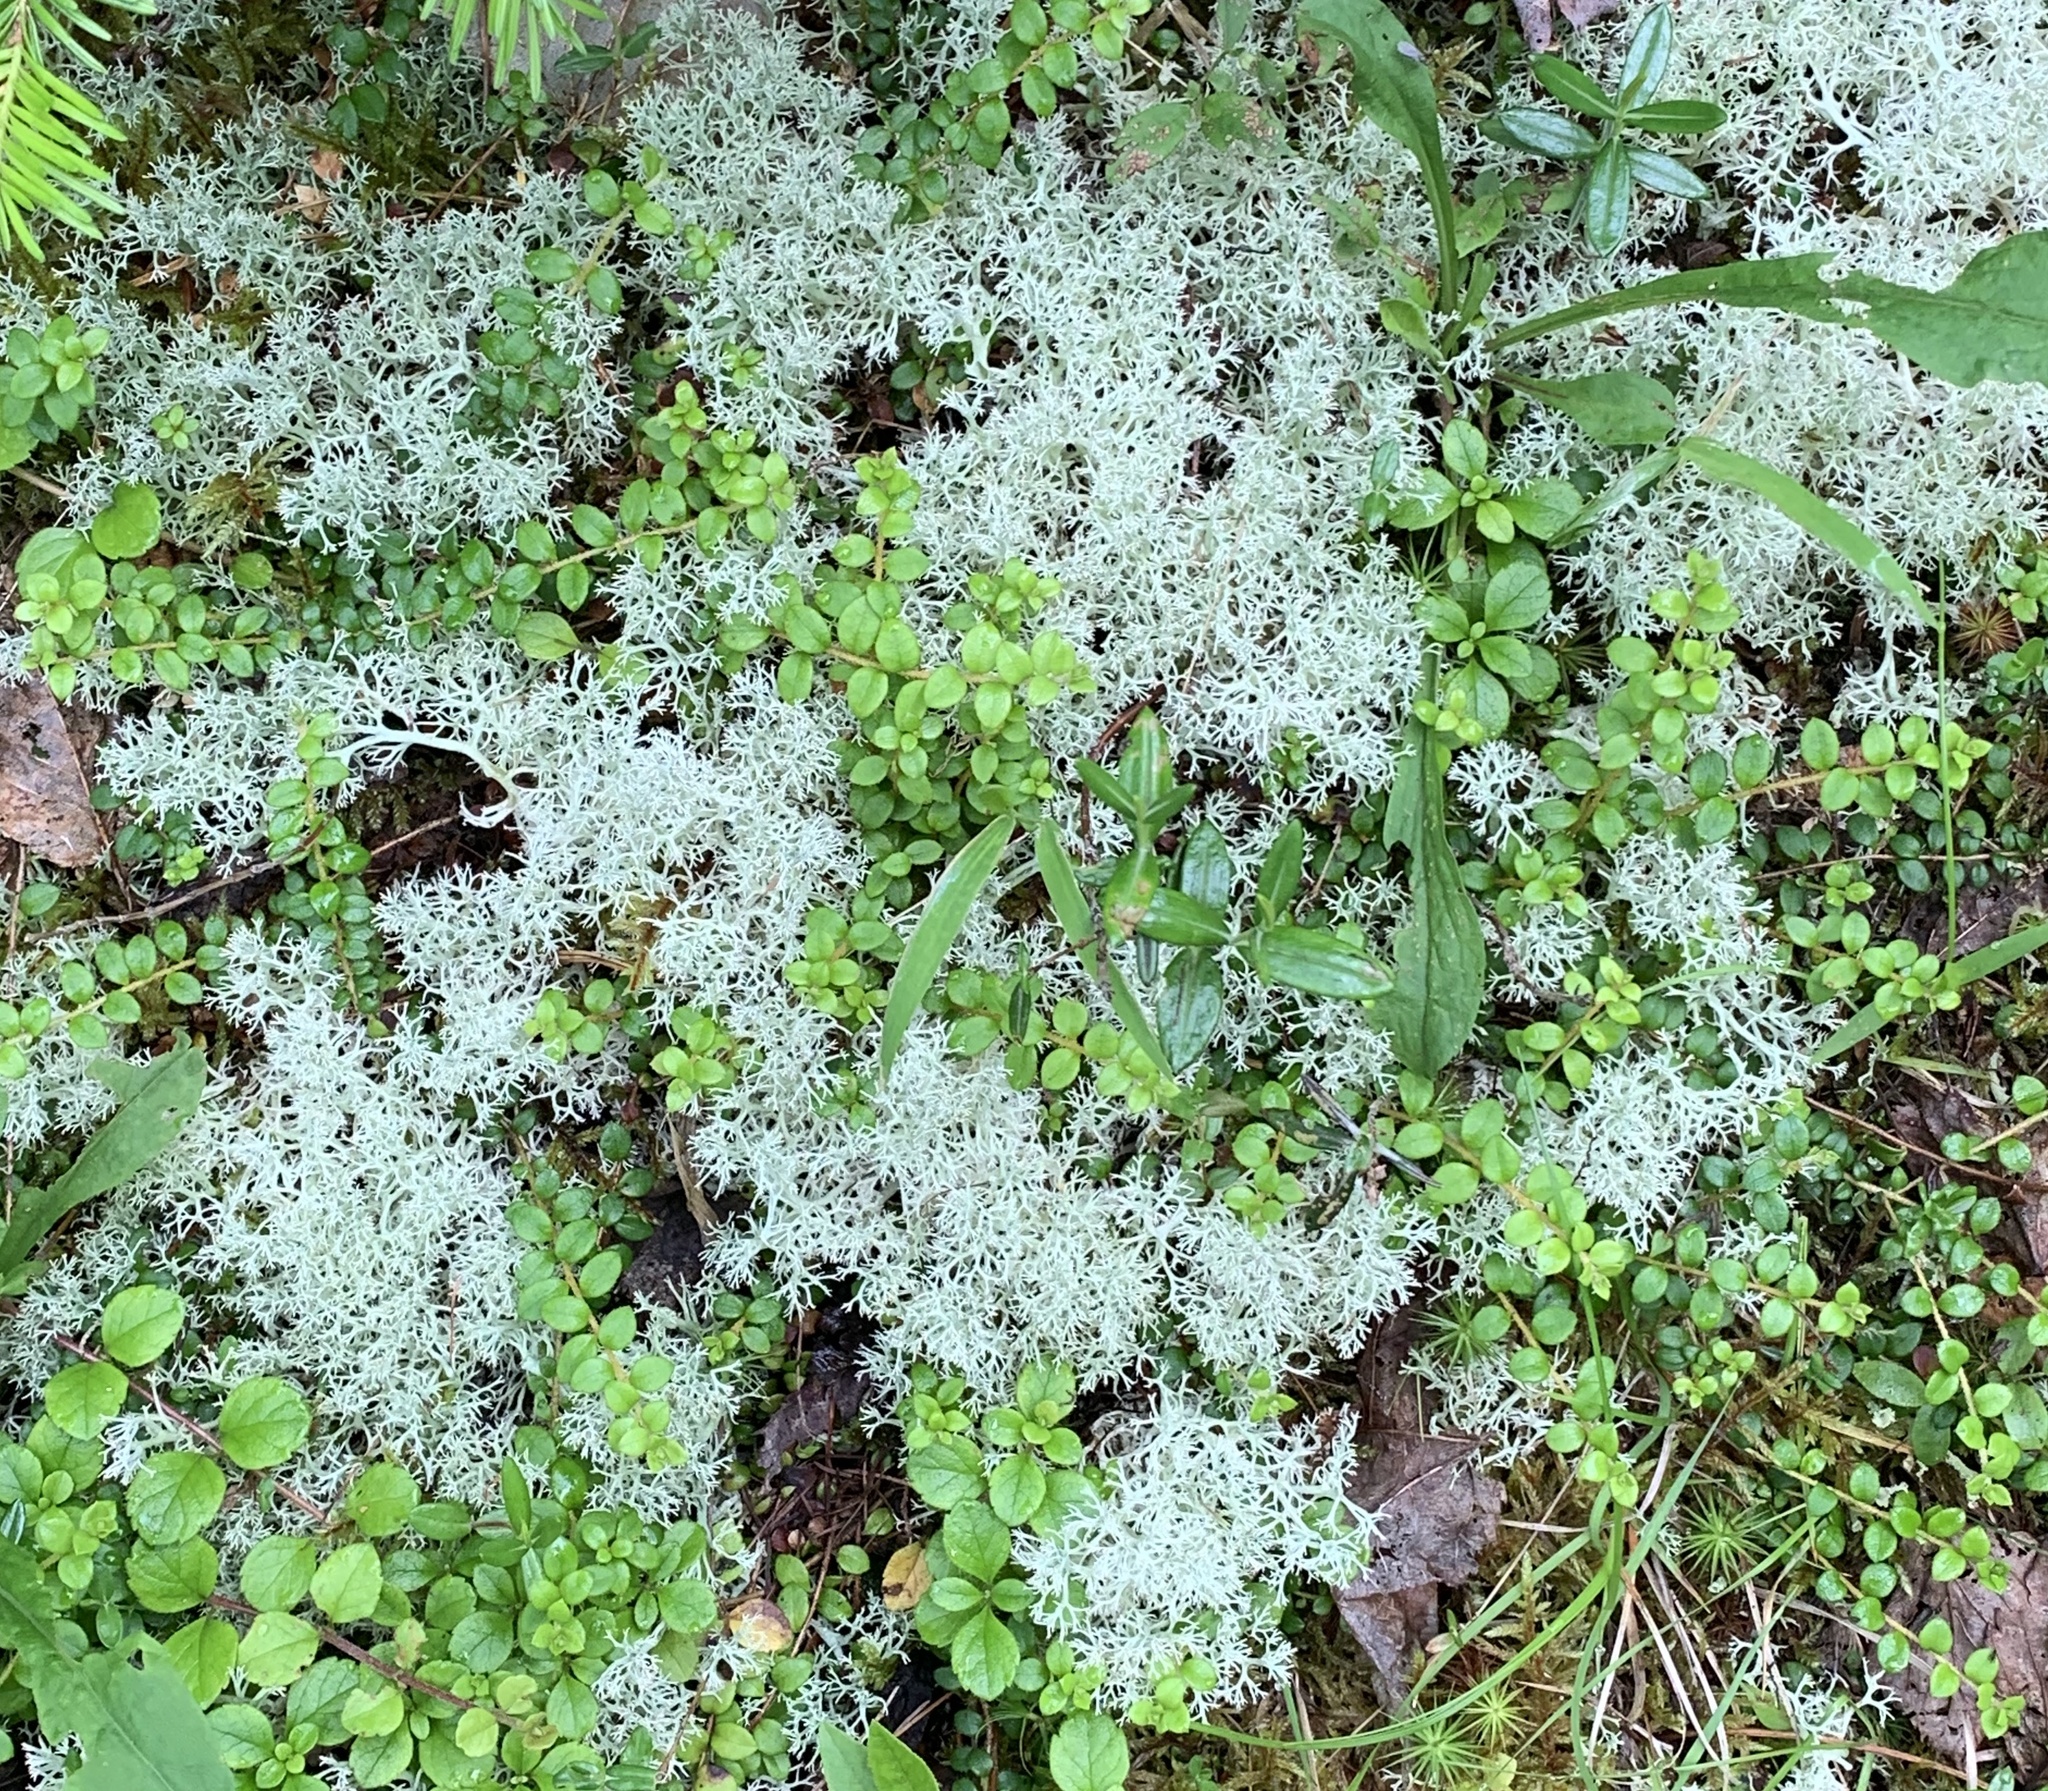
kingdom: Fungi
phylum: Ascomycota
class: Lecanoromycetes
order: Lecanorales
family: Cladoniaceae
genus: Cladonia
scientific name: Cladonia rangiferina
